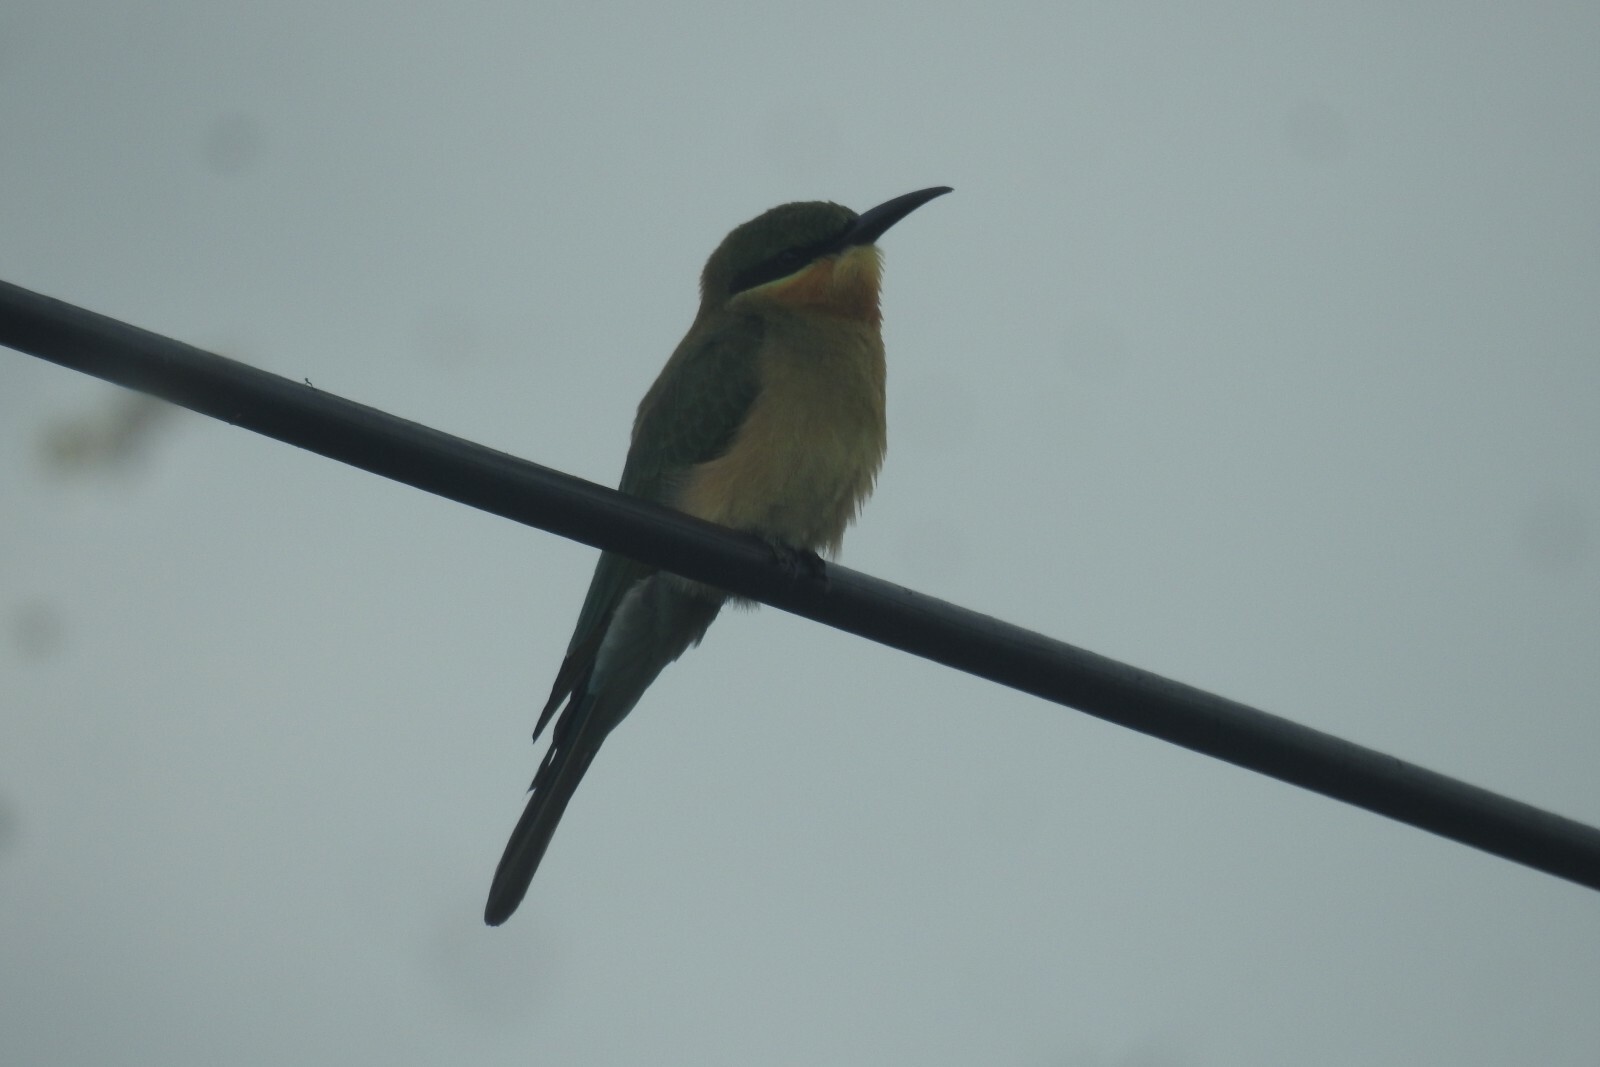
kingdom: Animalia
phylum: Chordata
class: Aves
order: Coraciiformes
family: Meropidae
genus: Merops
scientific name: Merops philippinus
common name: Blue-tailed bee-eater
